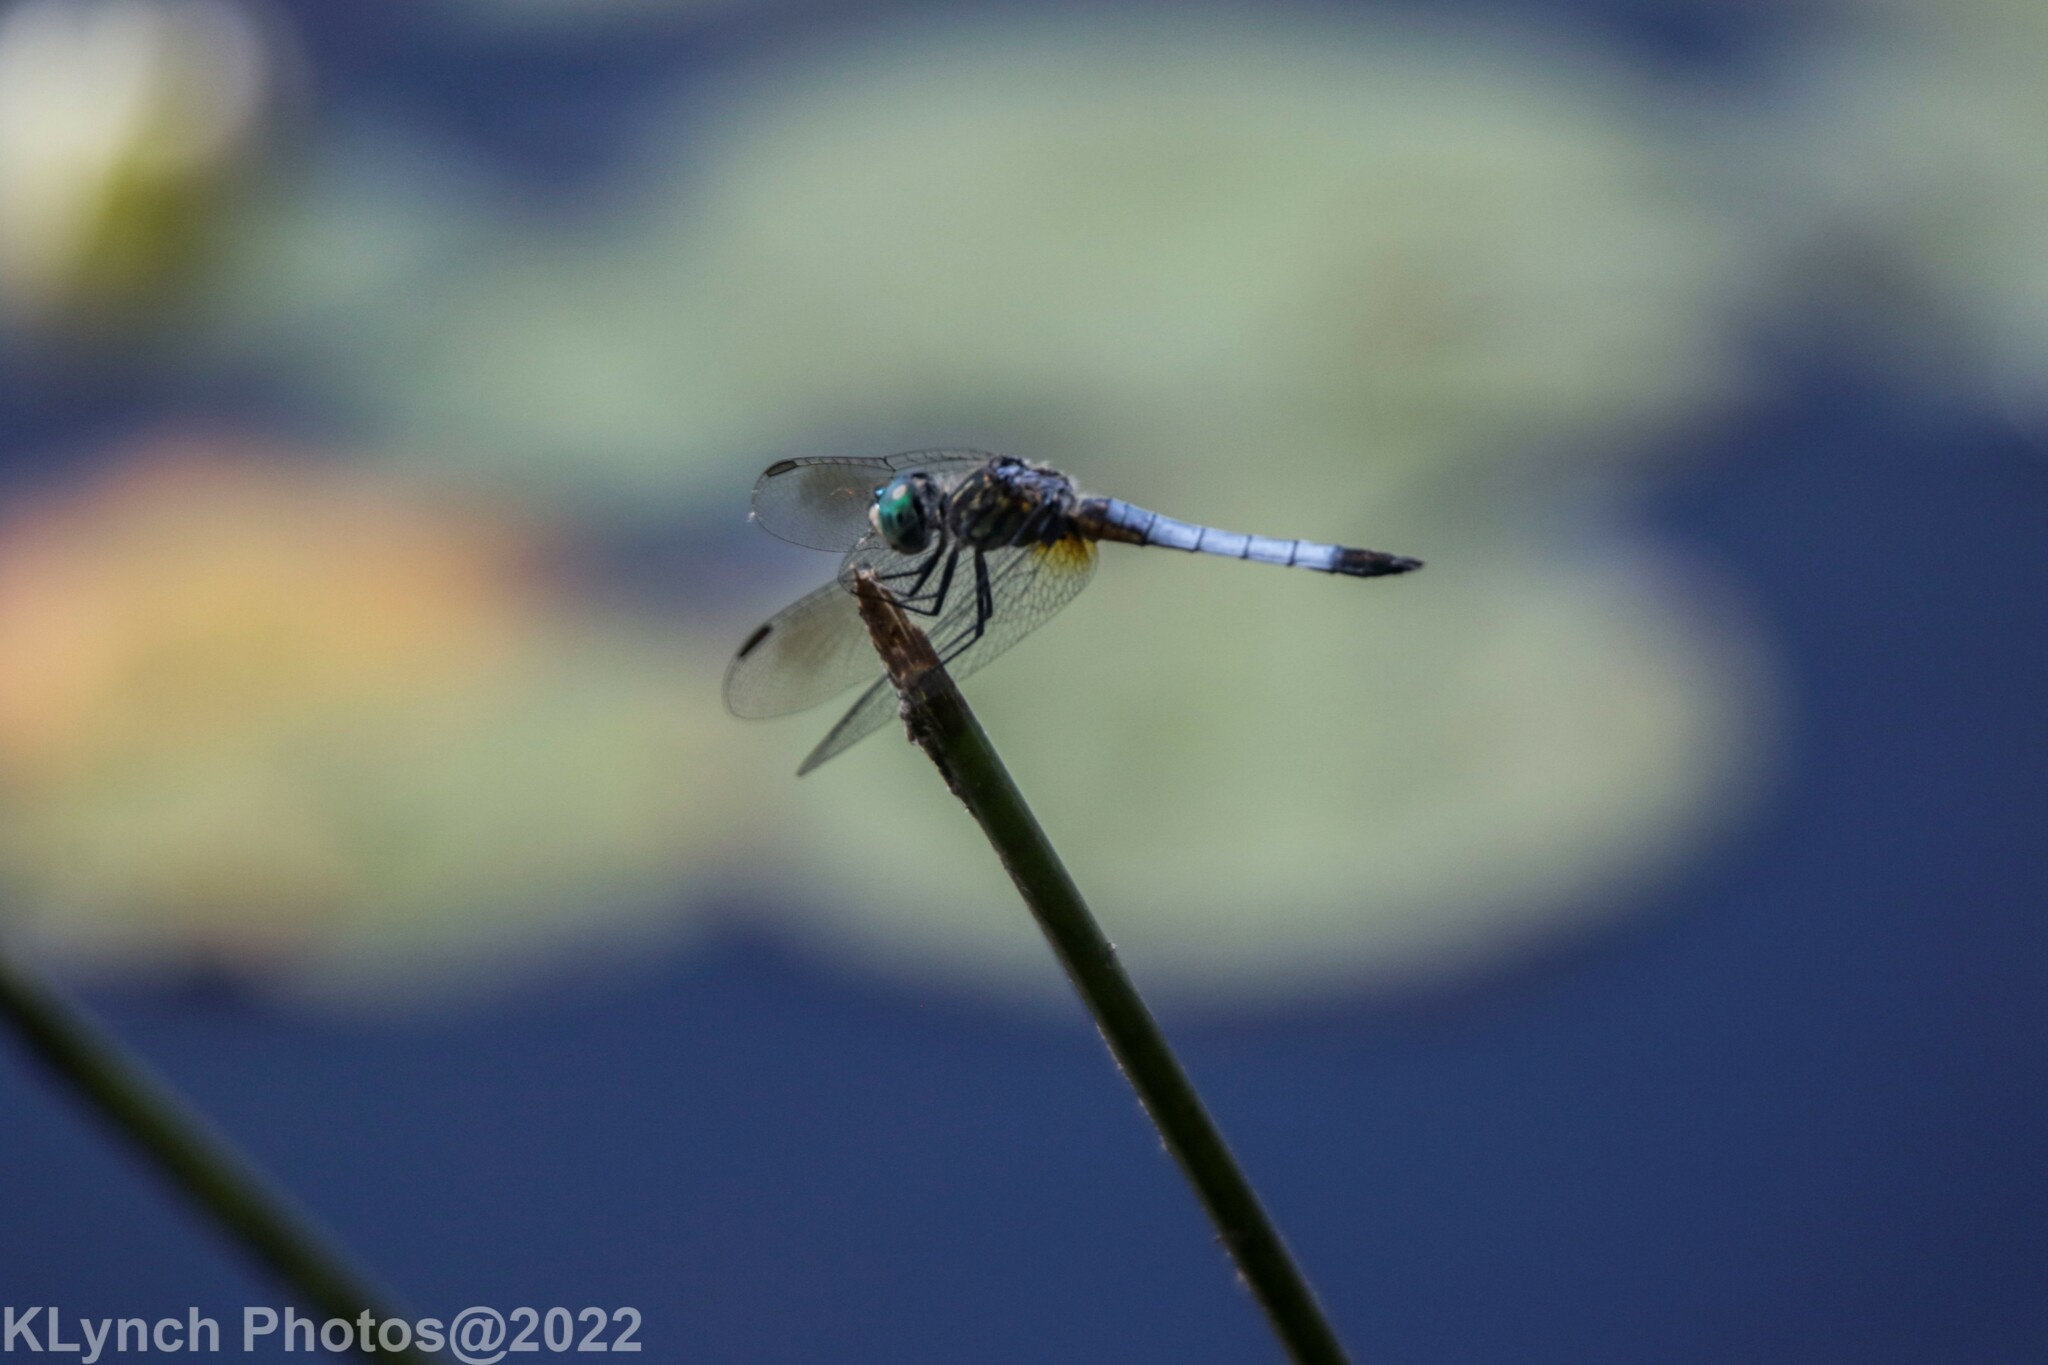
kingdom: Animalia
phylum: Arthropoda
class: Insecta
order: Odonata
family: Libellulidae
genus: Pachydiplax
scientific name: Pachydiplax longipennis
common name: Blue dasher
